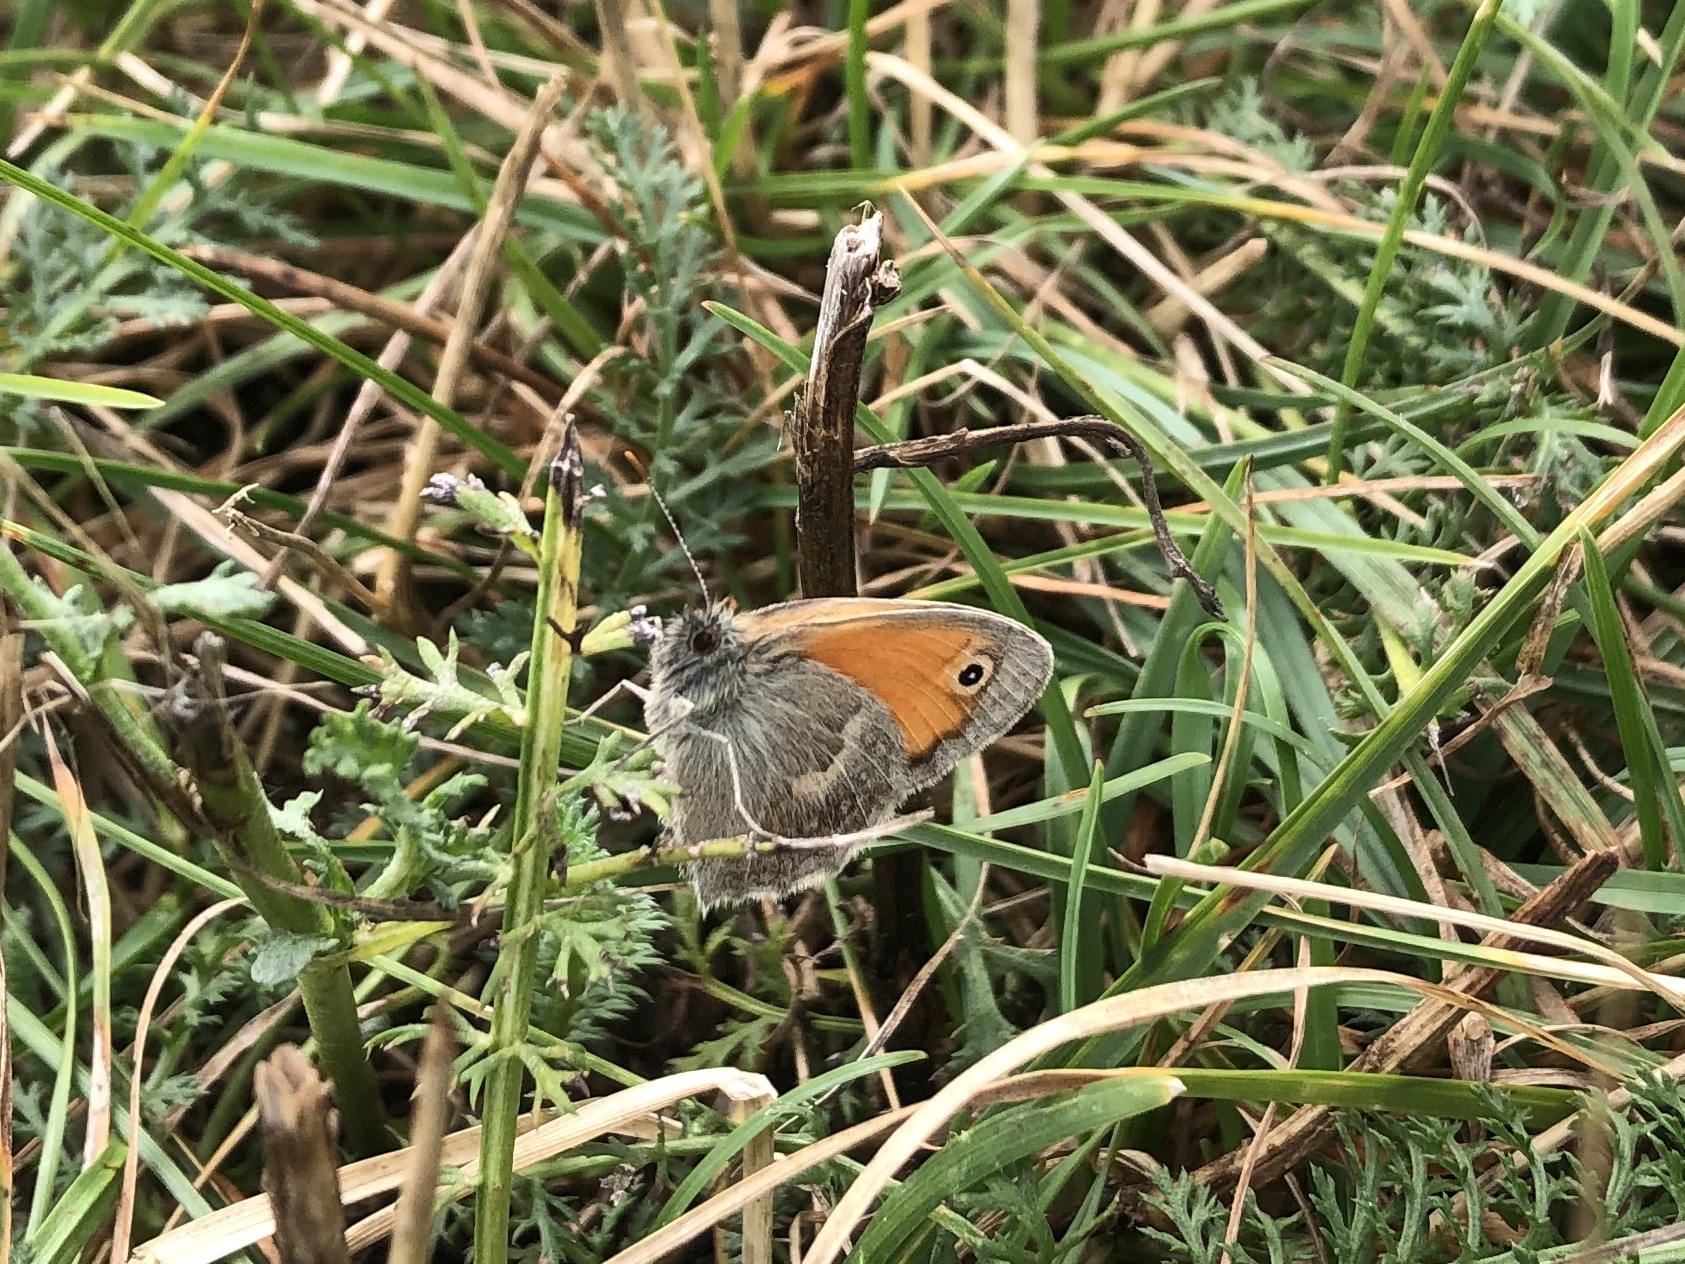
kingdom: Animalia
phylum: Arthropoda
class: Insecta
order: Lepidoptera
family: Nymphalidae
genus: Coenonympha
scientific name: Coenonympha pamphilus
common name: Small heath
